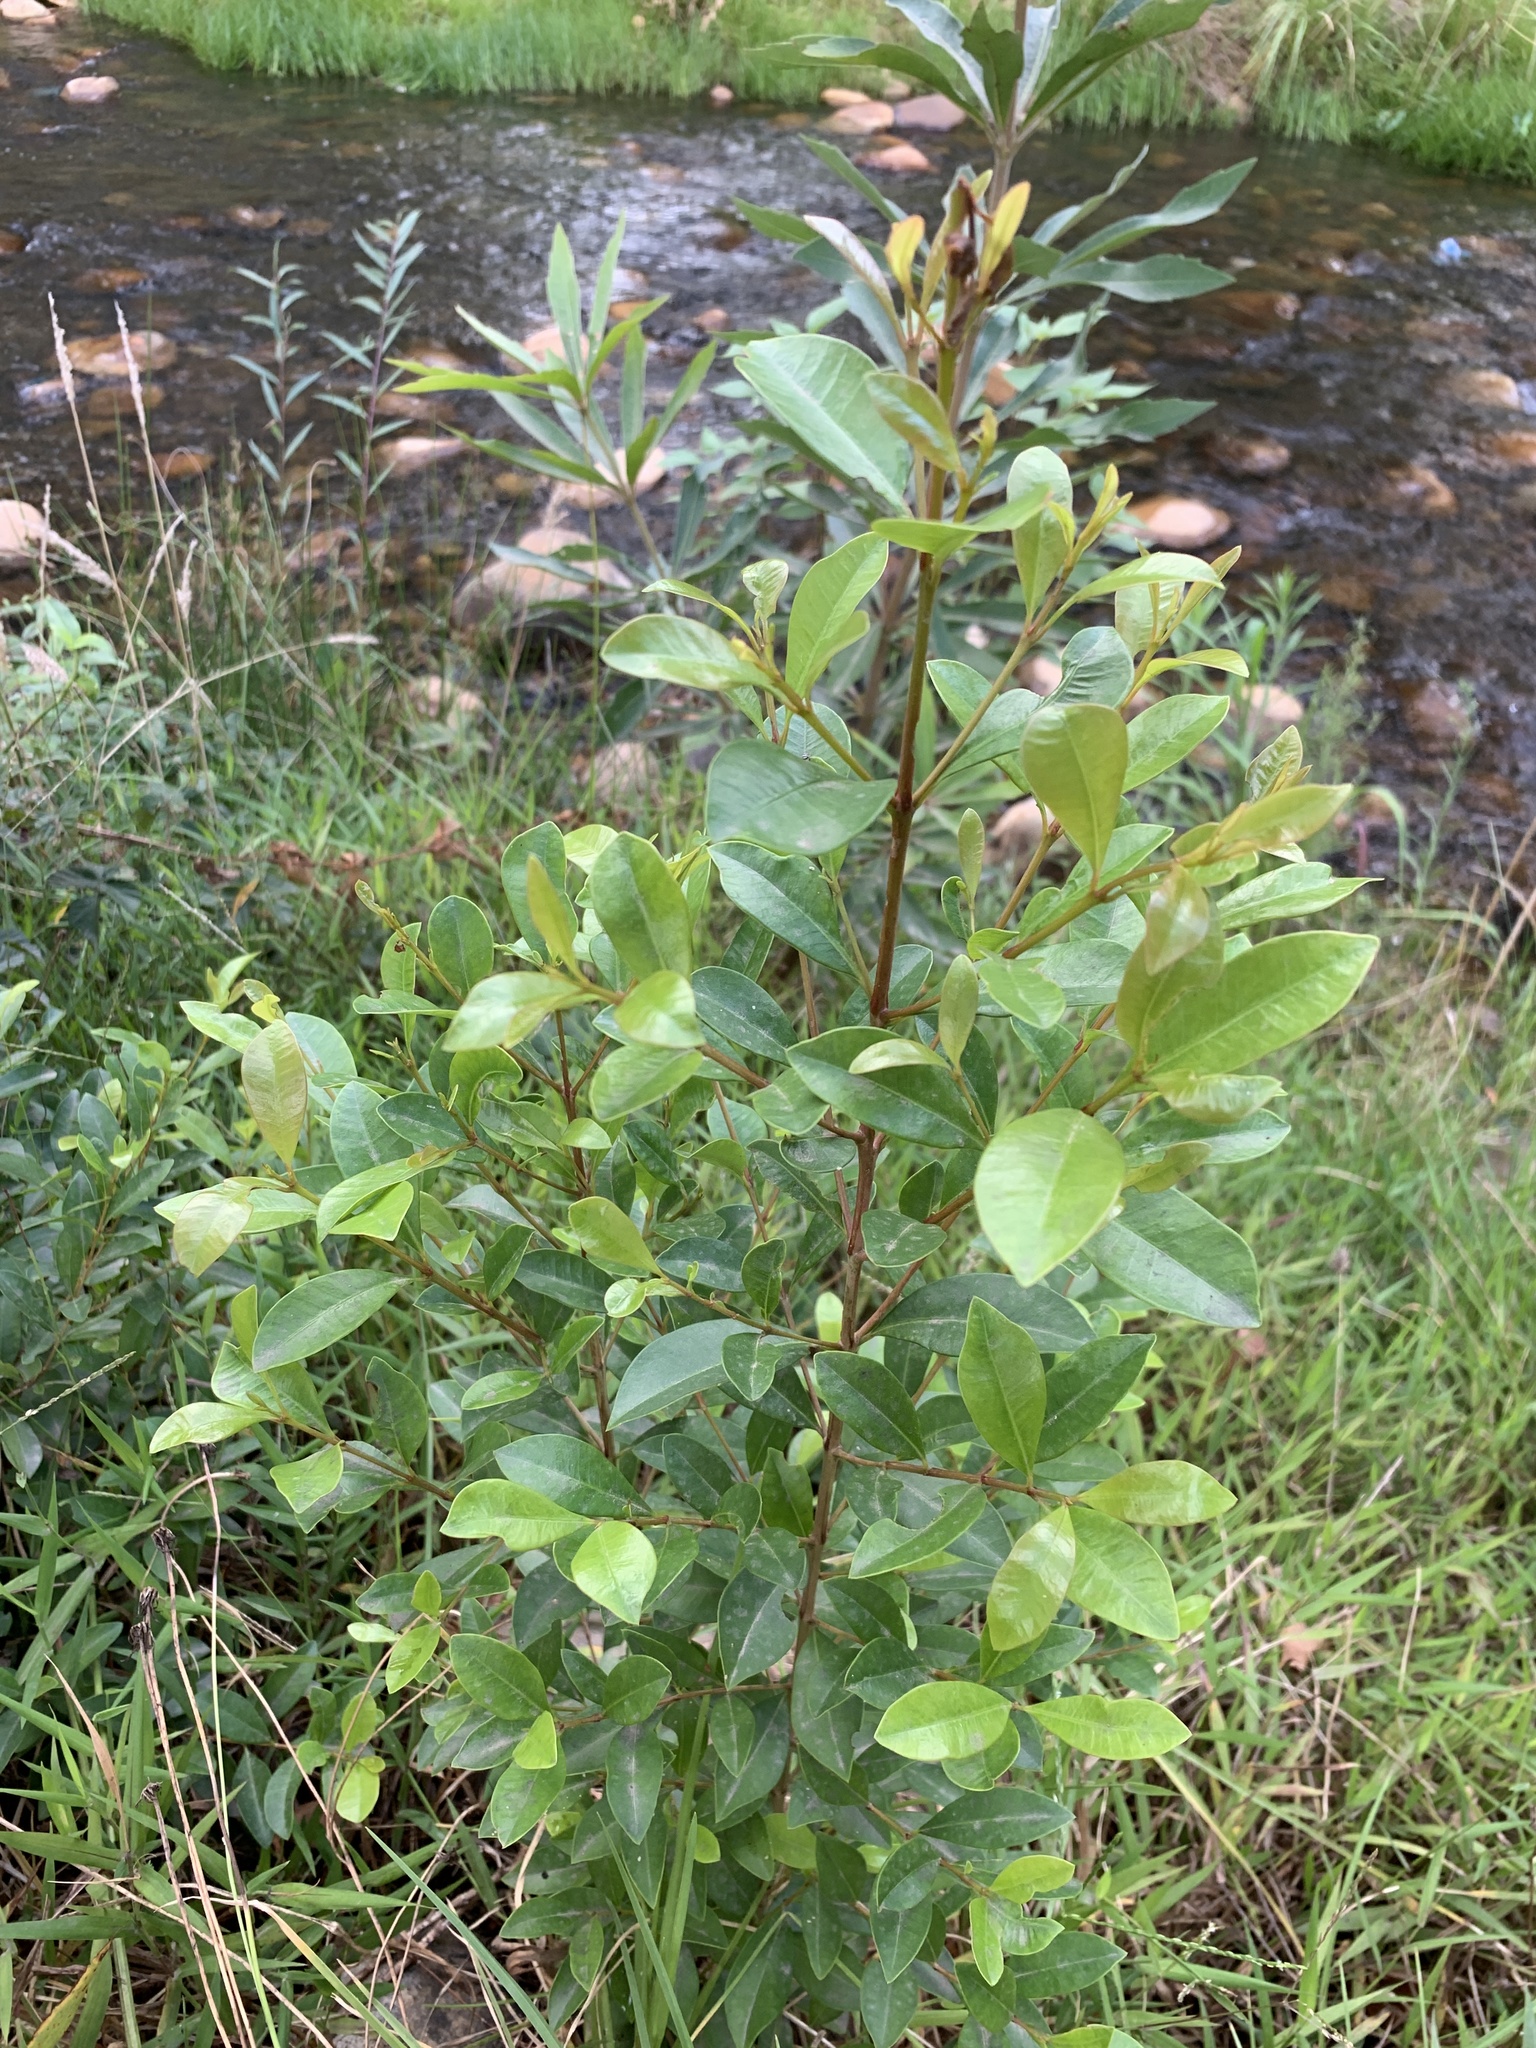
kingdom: Plantae
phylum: Tracheophyta
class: Magnoliopsida
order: Myrtales
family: Myrtaceae
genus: Syzygium
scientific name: Syzygium australe
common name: Australian brush-cherry
